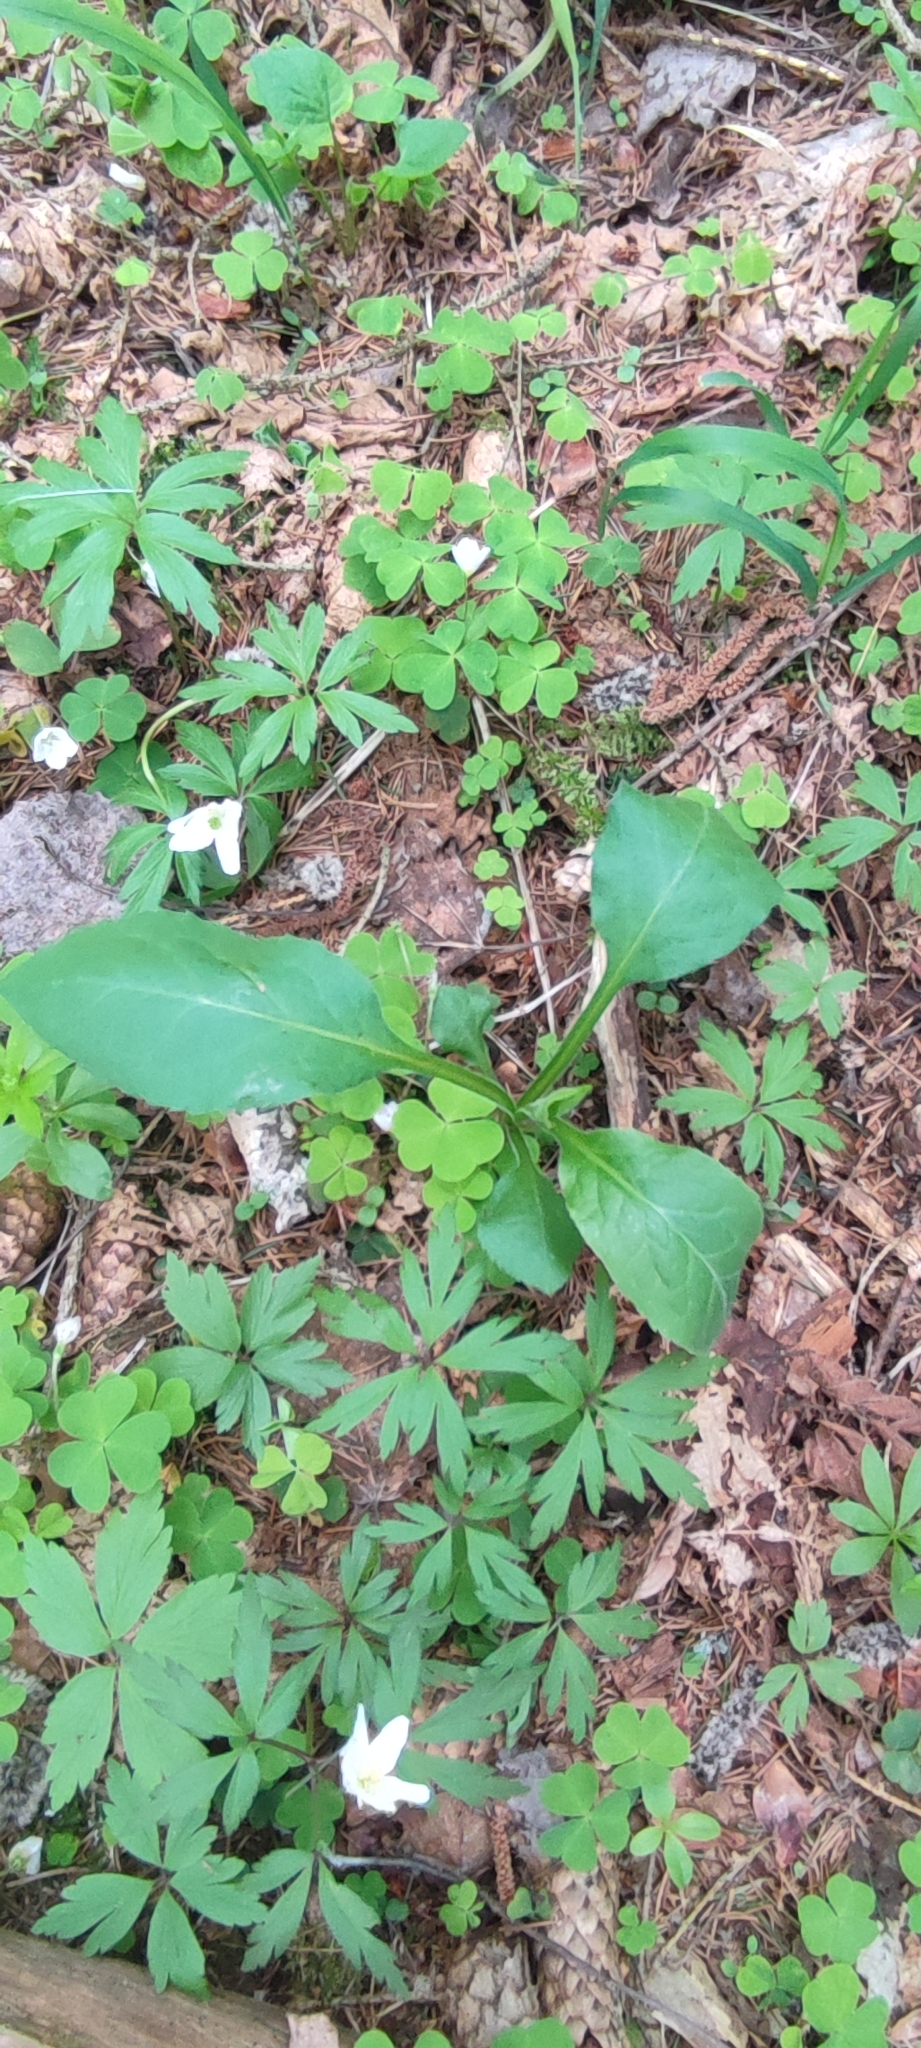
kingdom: Plantae
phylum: Tracheophyta
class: Magnoliopsida
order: Asterales
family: Asteraceae
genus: Solidago
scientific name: Solidago virgaurea
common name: Goldenrod
